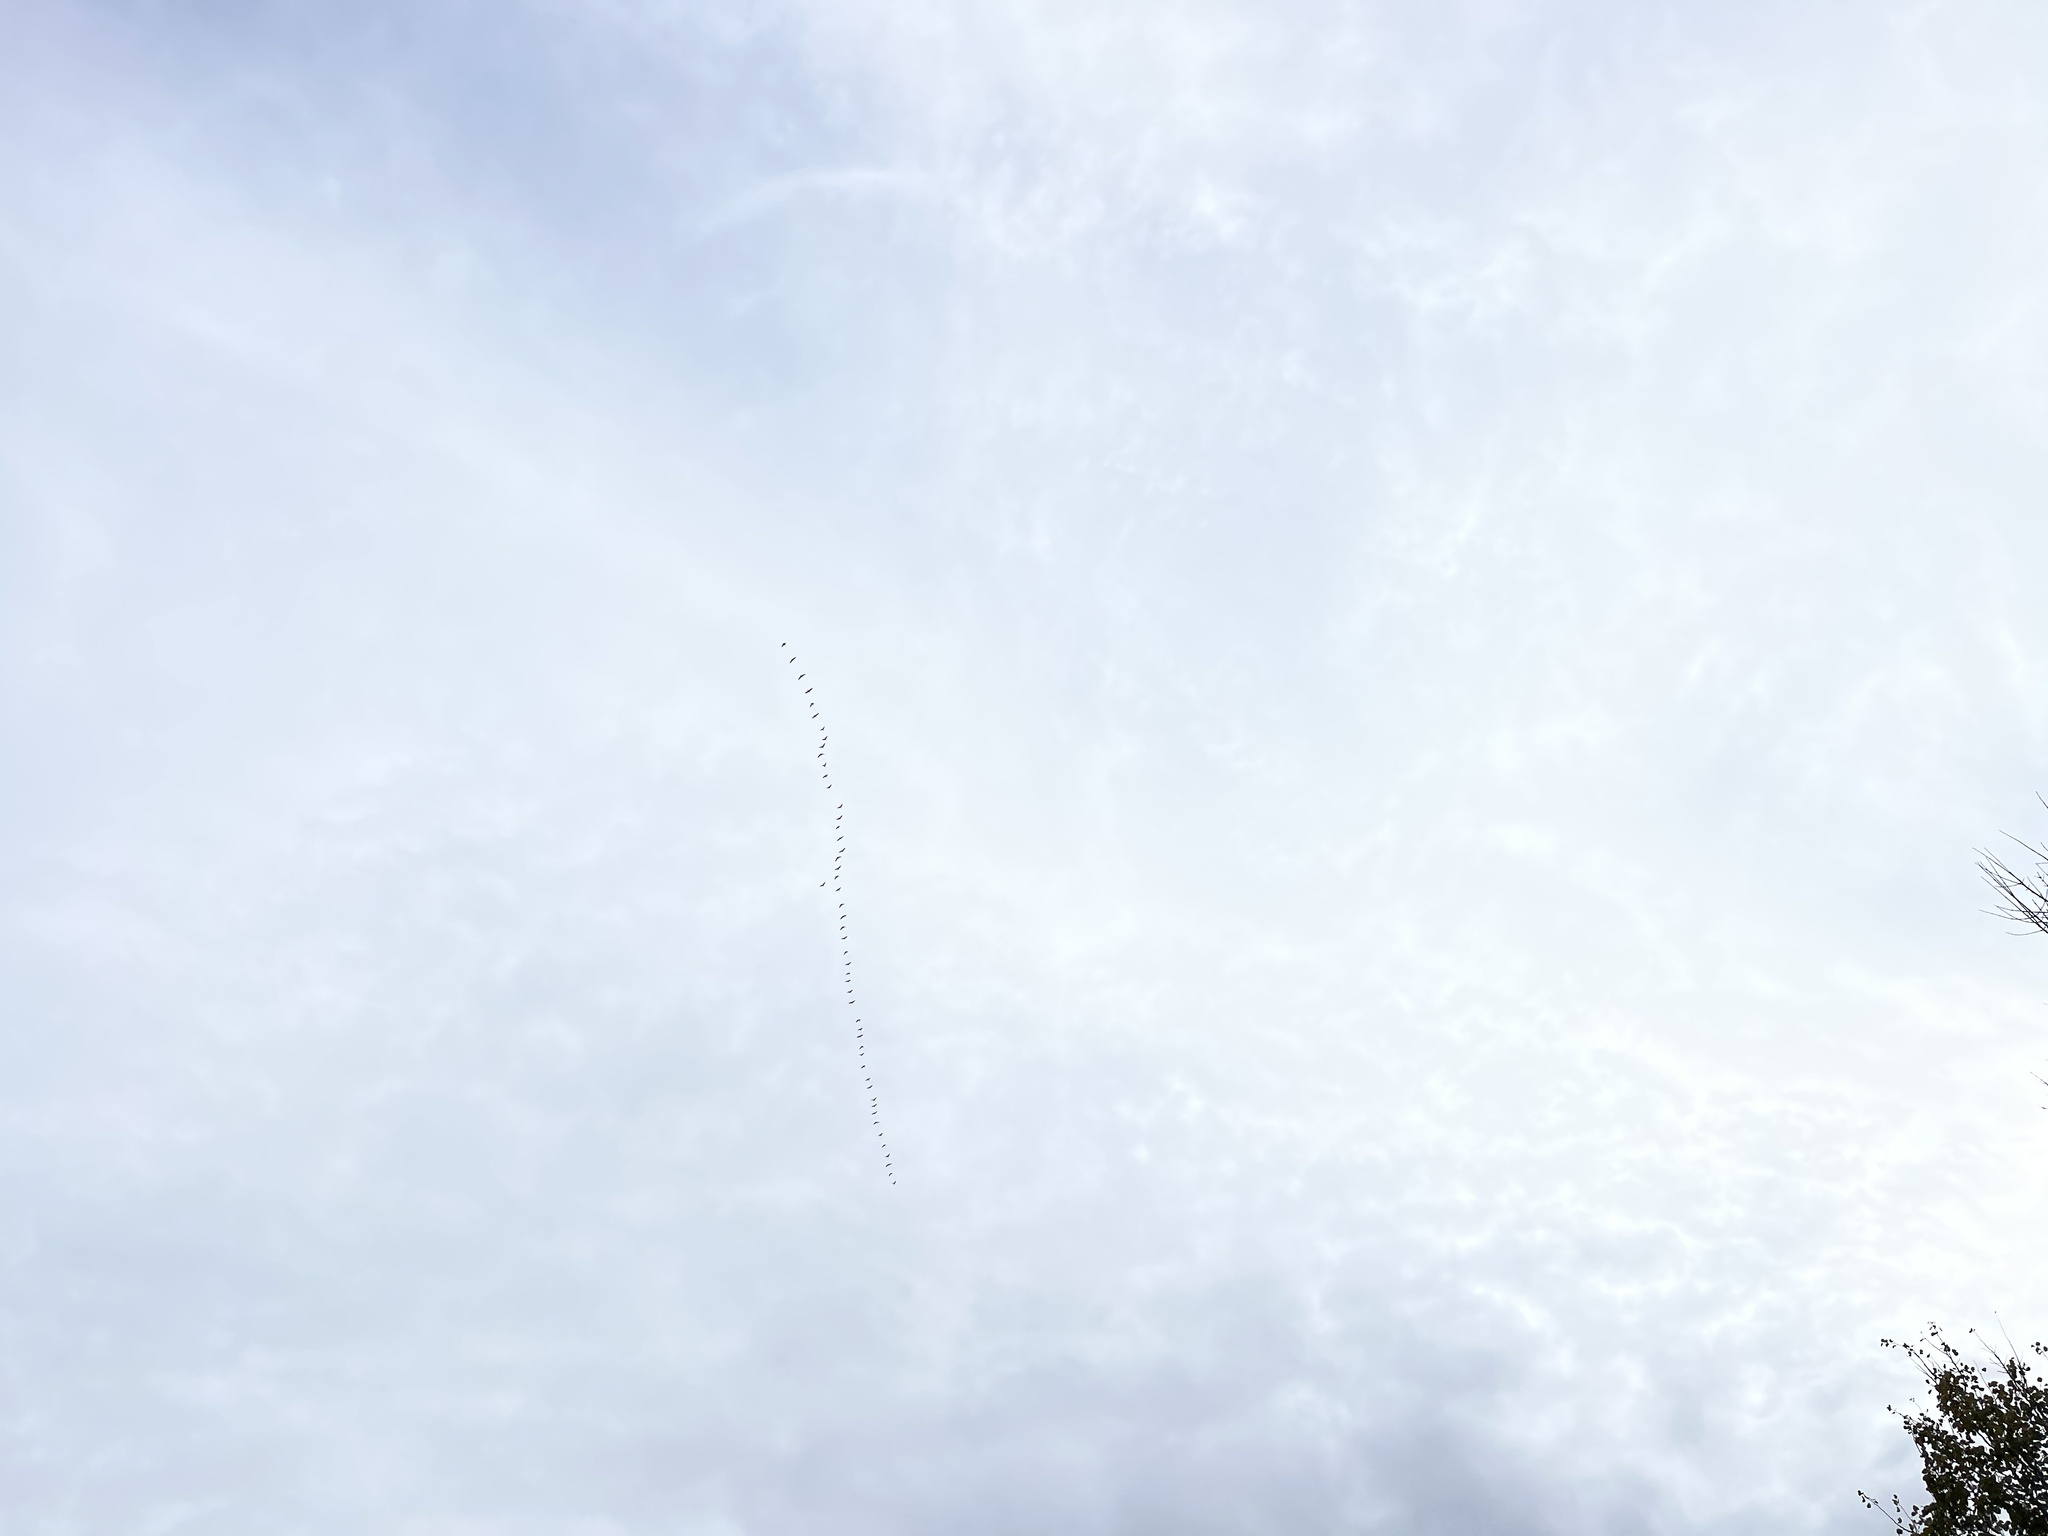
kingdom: Animalia
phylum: Chordata
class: Aves
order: Anseriformes
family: Anatidae
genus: Branta
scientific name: Branta canadensis
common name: Canada goose
